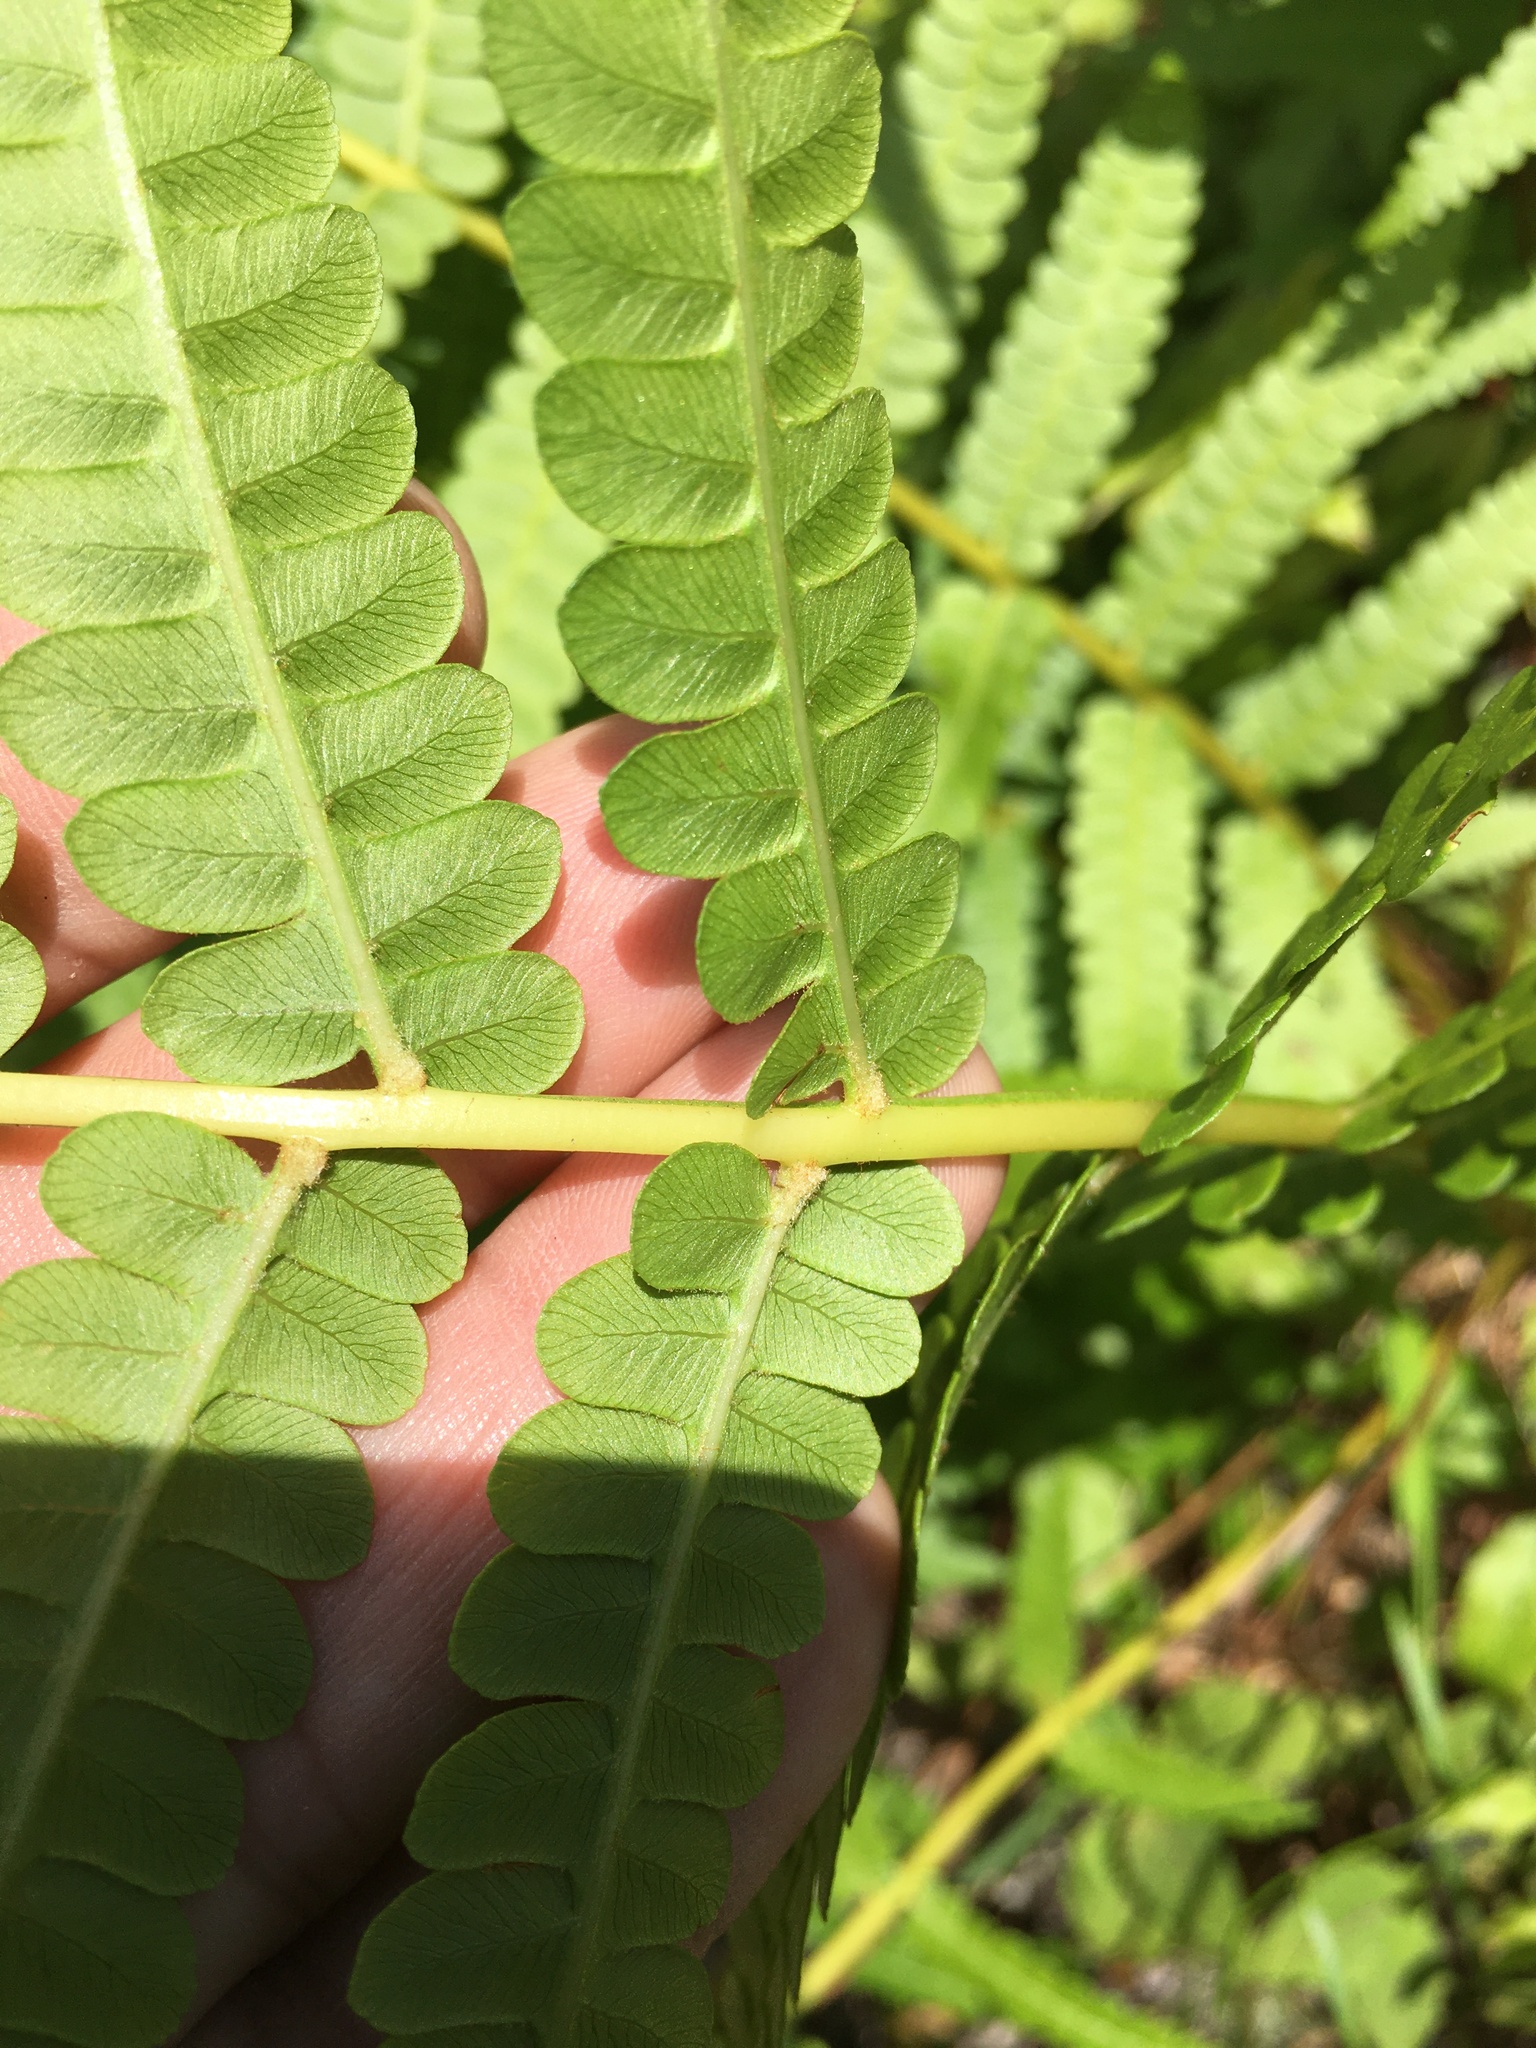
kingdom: Plantae
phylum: Tracheophyta
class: Polypodiopsida
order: Osmundales
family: Osmundaceae
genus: Osmundastrum
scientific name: Osmundastrum cinnamomeum
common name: Cinnamon fern
